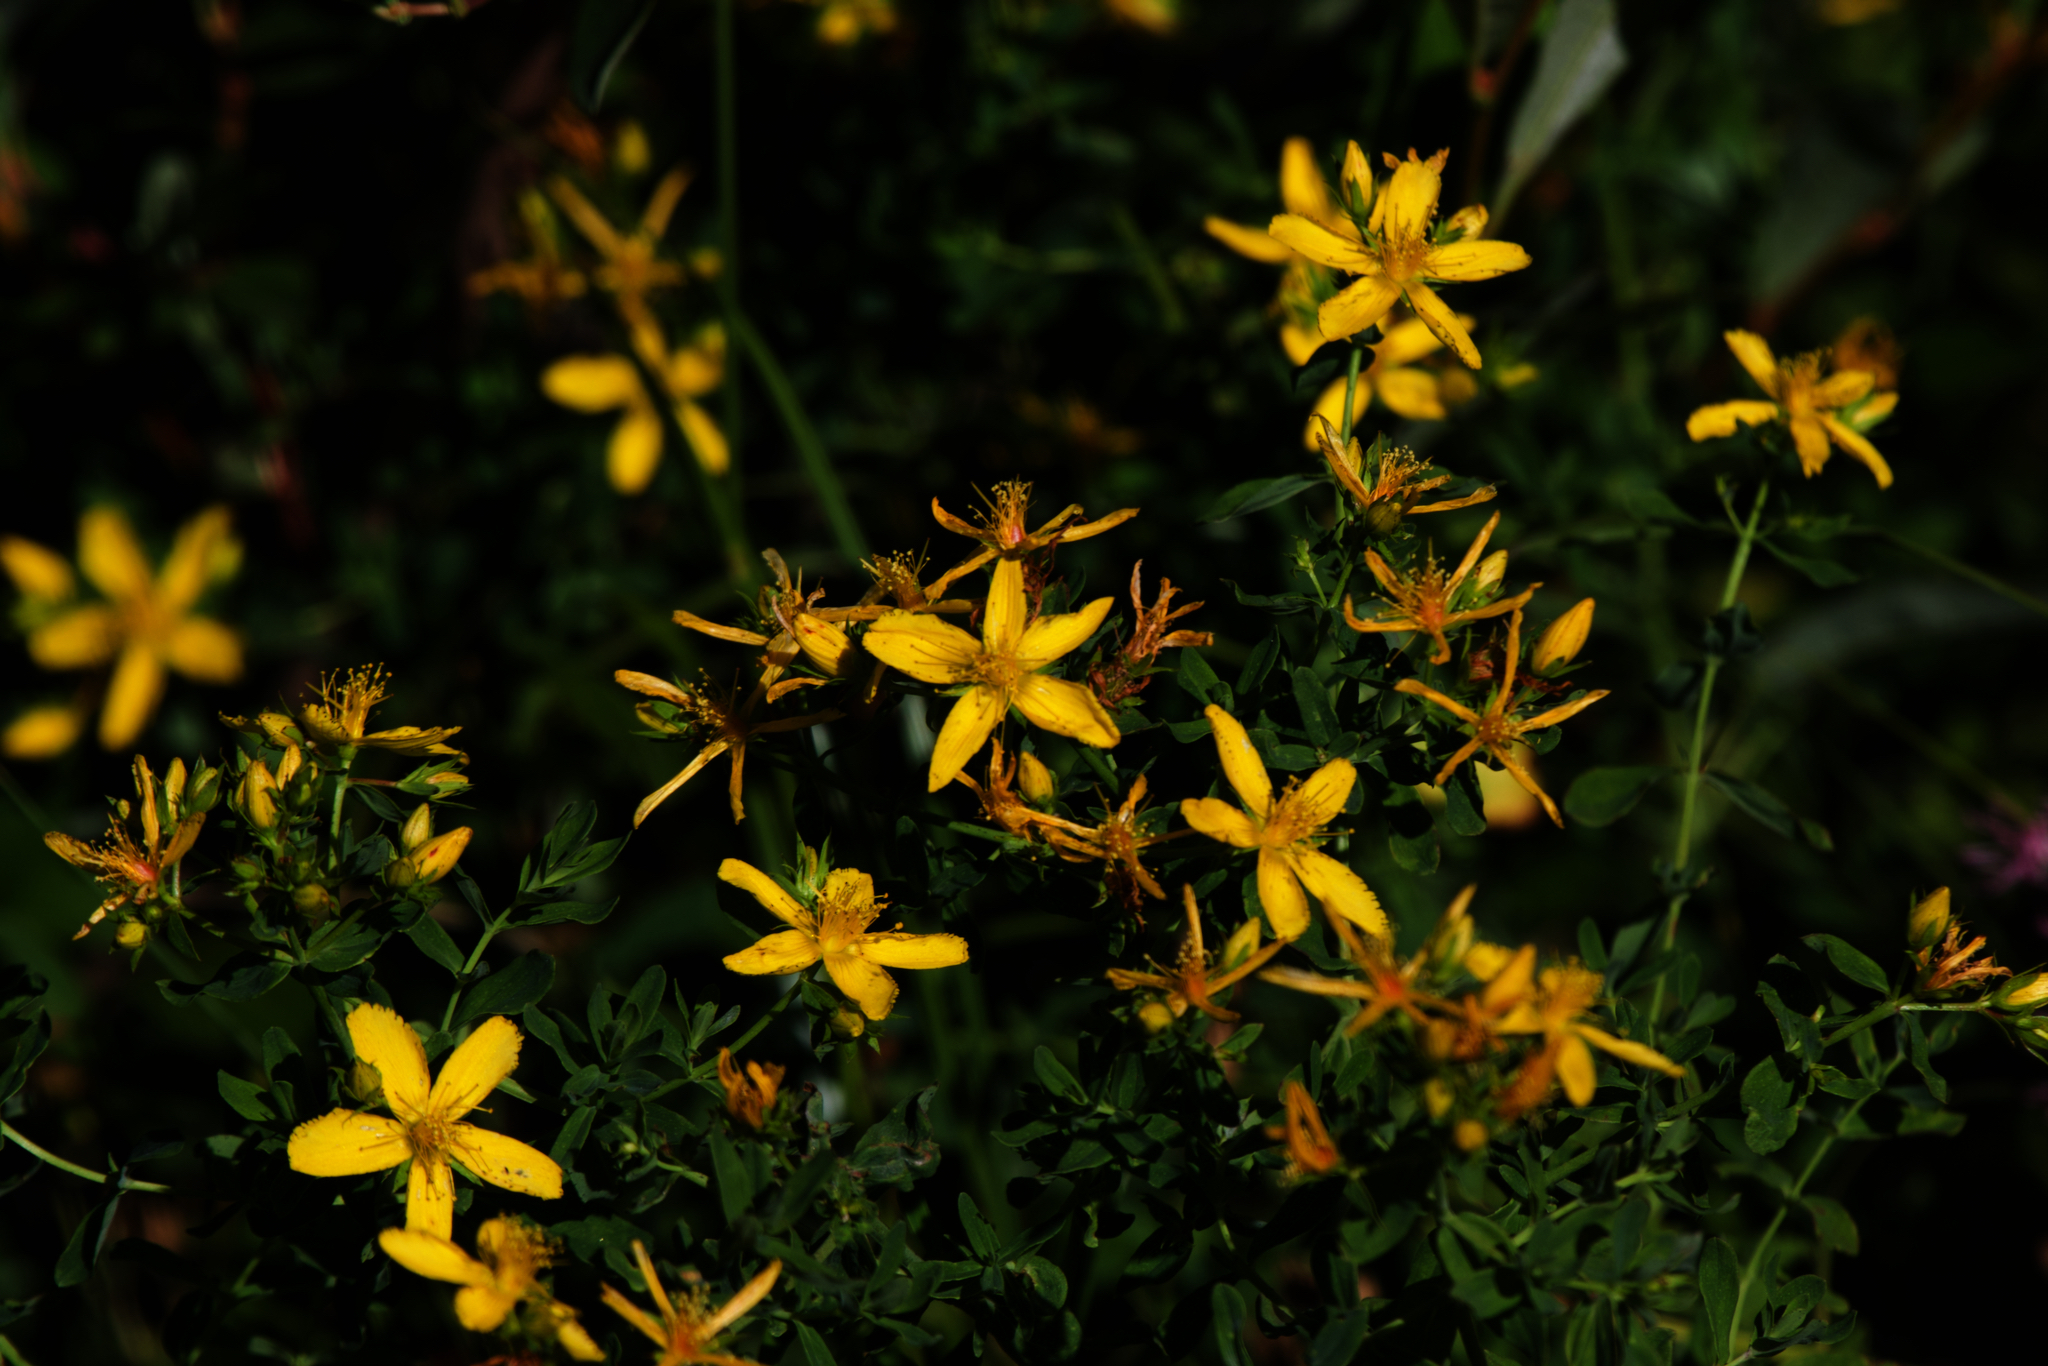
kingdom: Plantae
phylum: Tracheophyta
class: Magnoliopsida
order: Malpighiales
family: Hypericaceae
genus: Hypericum
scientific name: Hypericum perforatum
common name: Common st. johnswort
